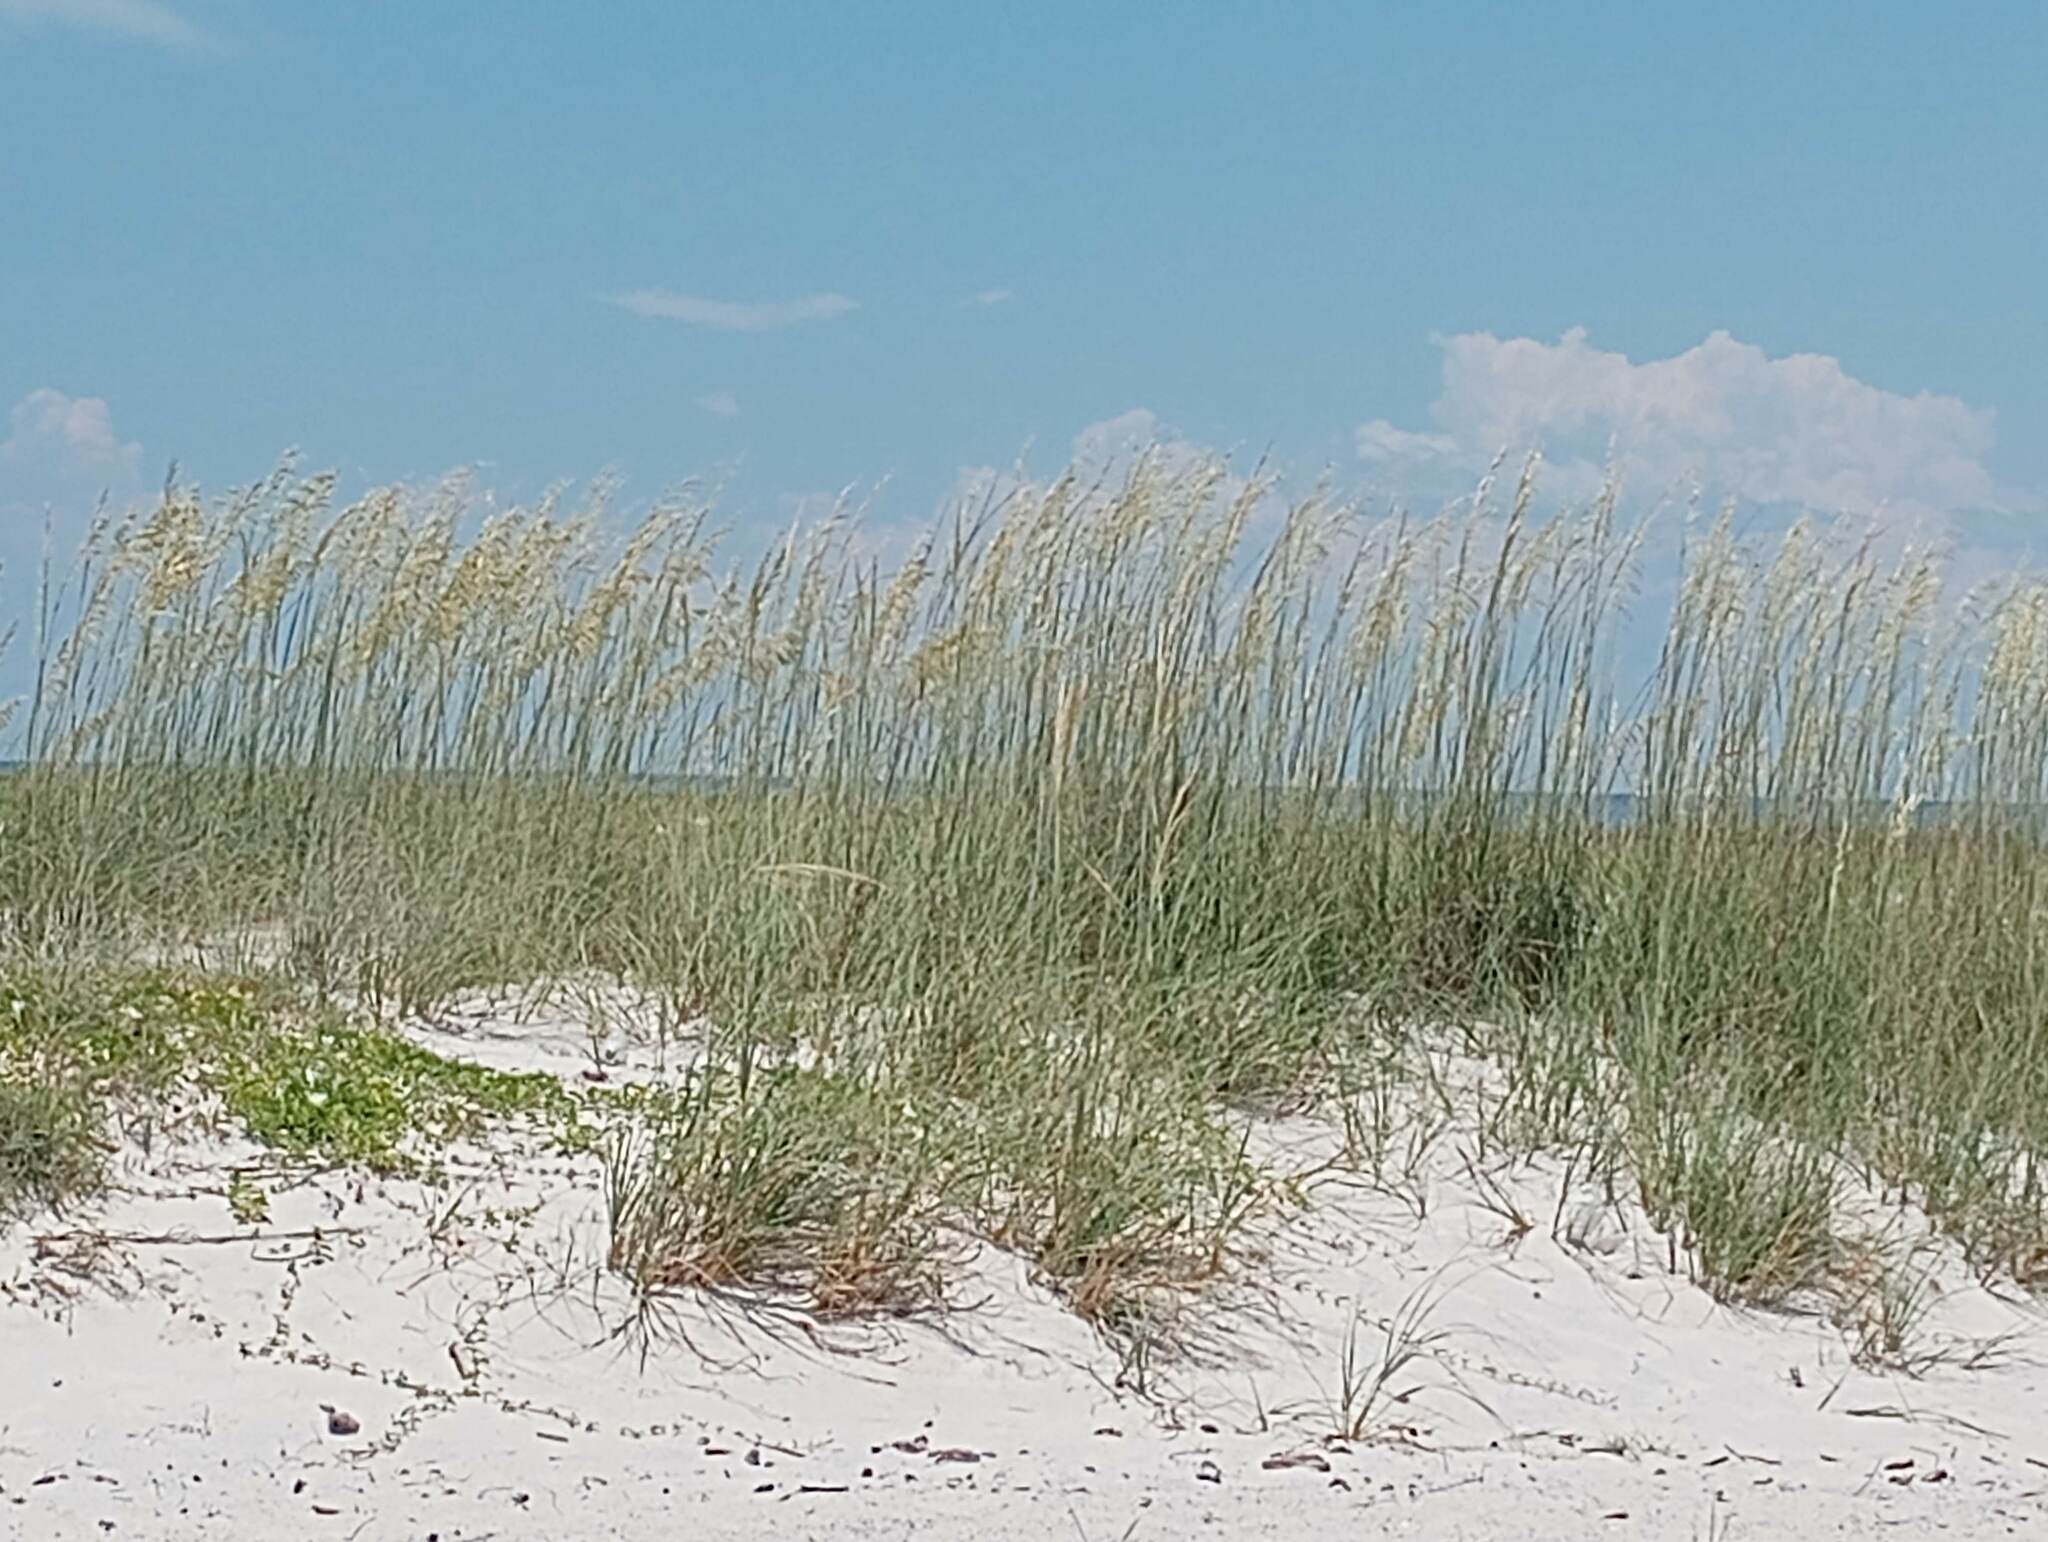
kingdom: Plantae
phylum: Tracheophyta
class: Liliopsida
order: Poales
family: Poaceae
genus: Uniola
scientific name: Uniola paniculata
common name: Seaside-oats
